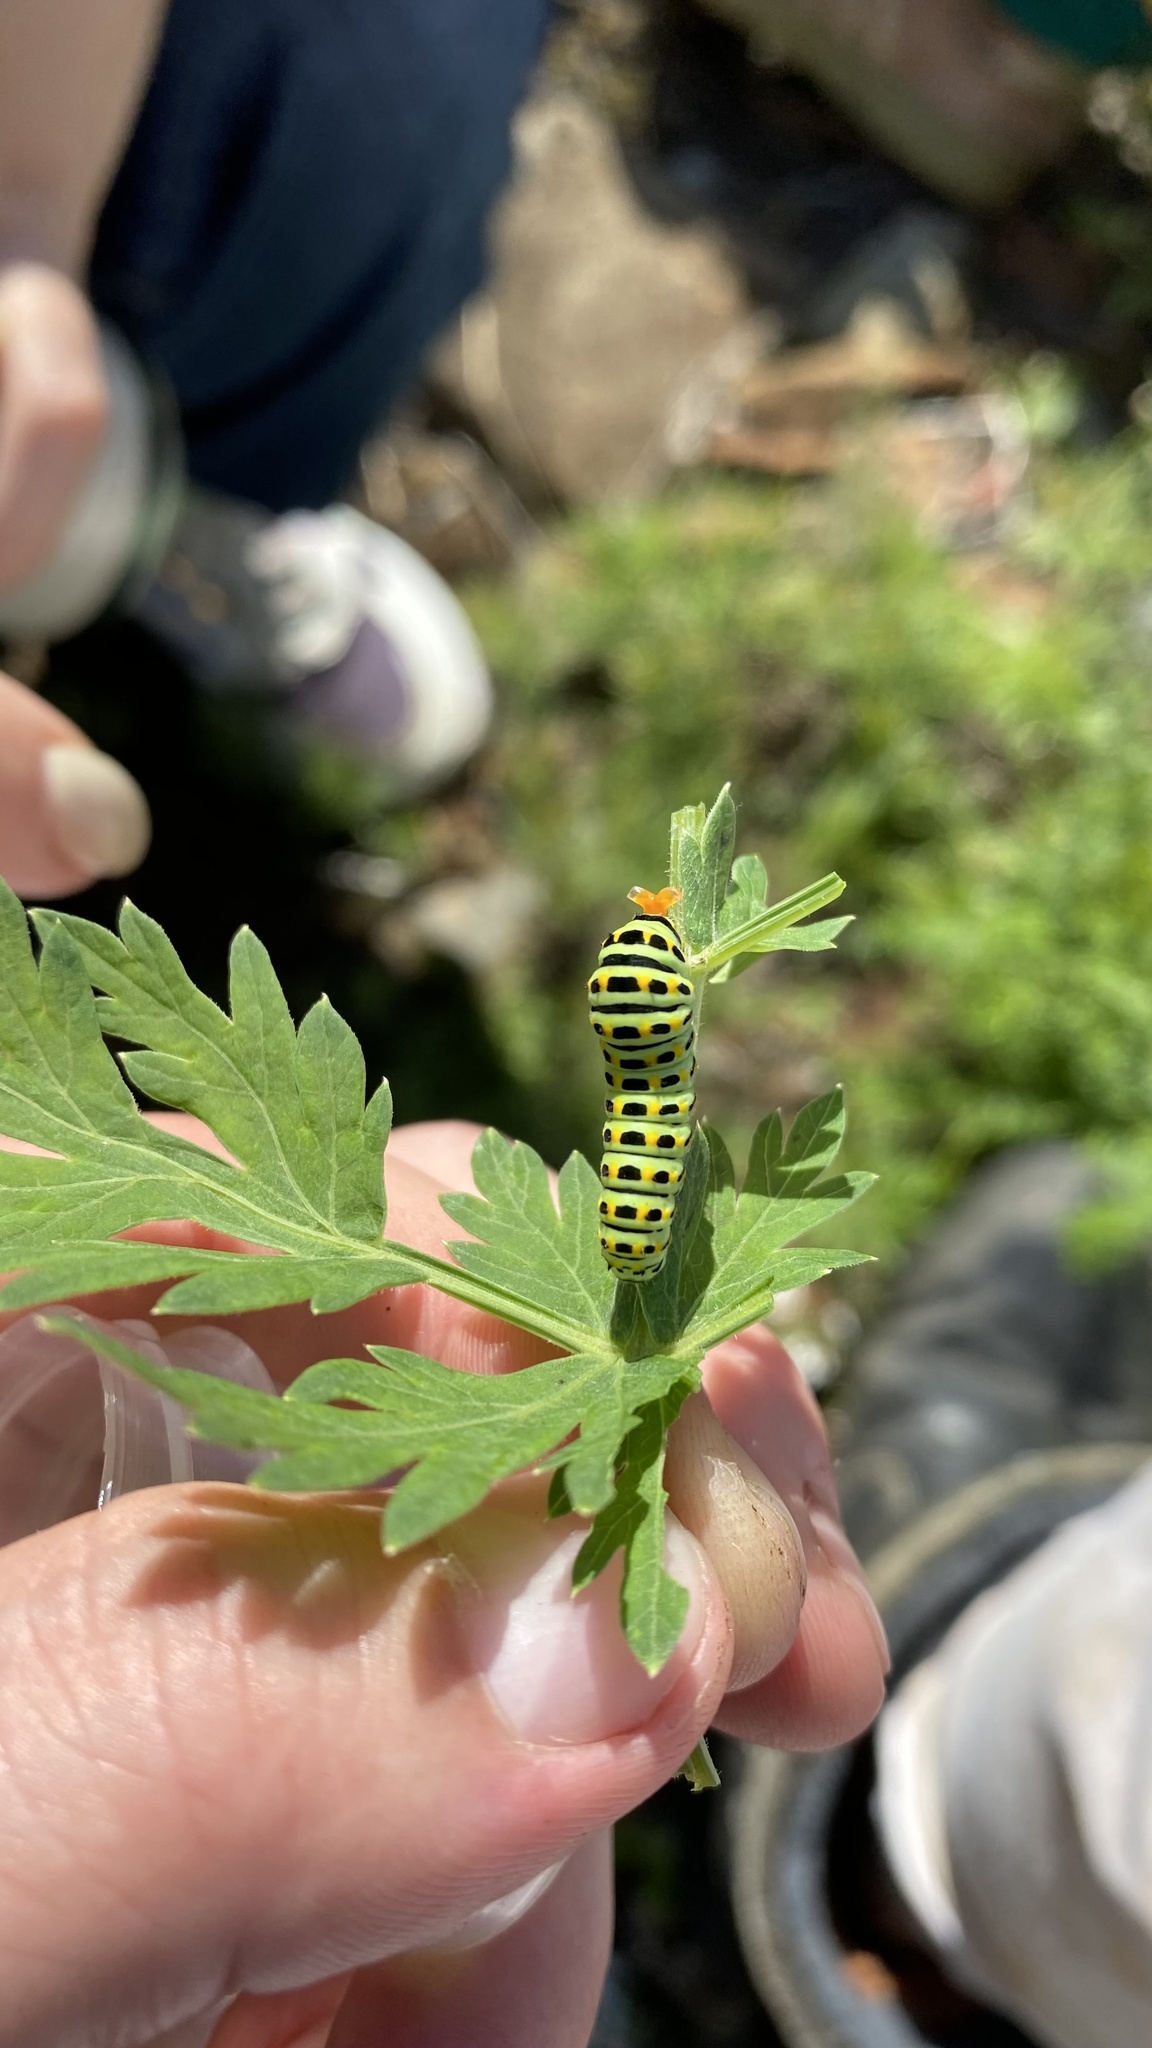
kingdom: Animalia
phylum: Arthropoda
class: Insecta
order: Lepidoptera
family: Papilionidae
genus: Papilio
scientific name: Papilio machaon
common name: Swallowtail
